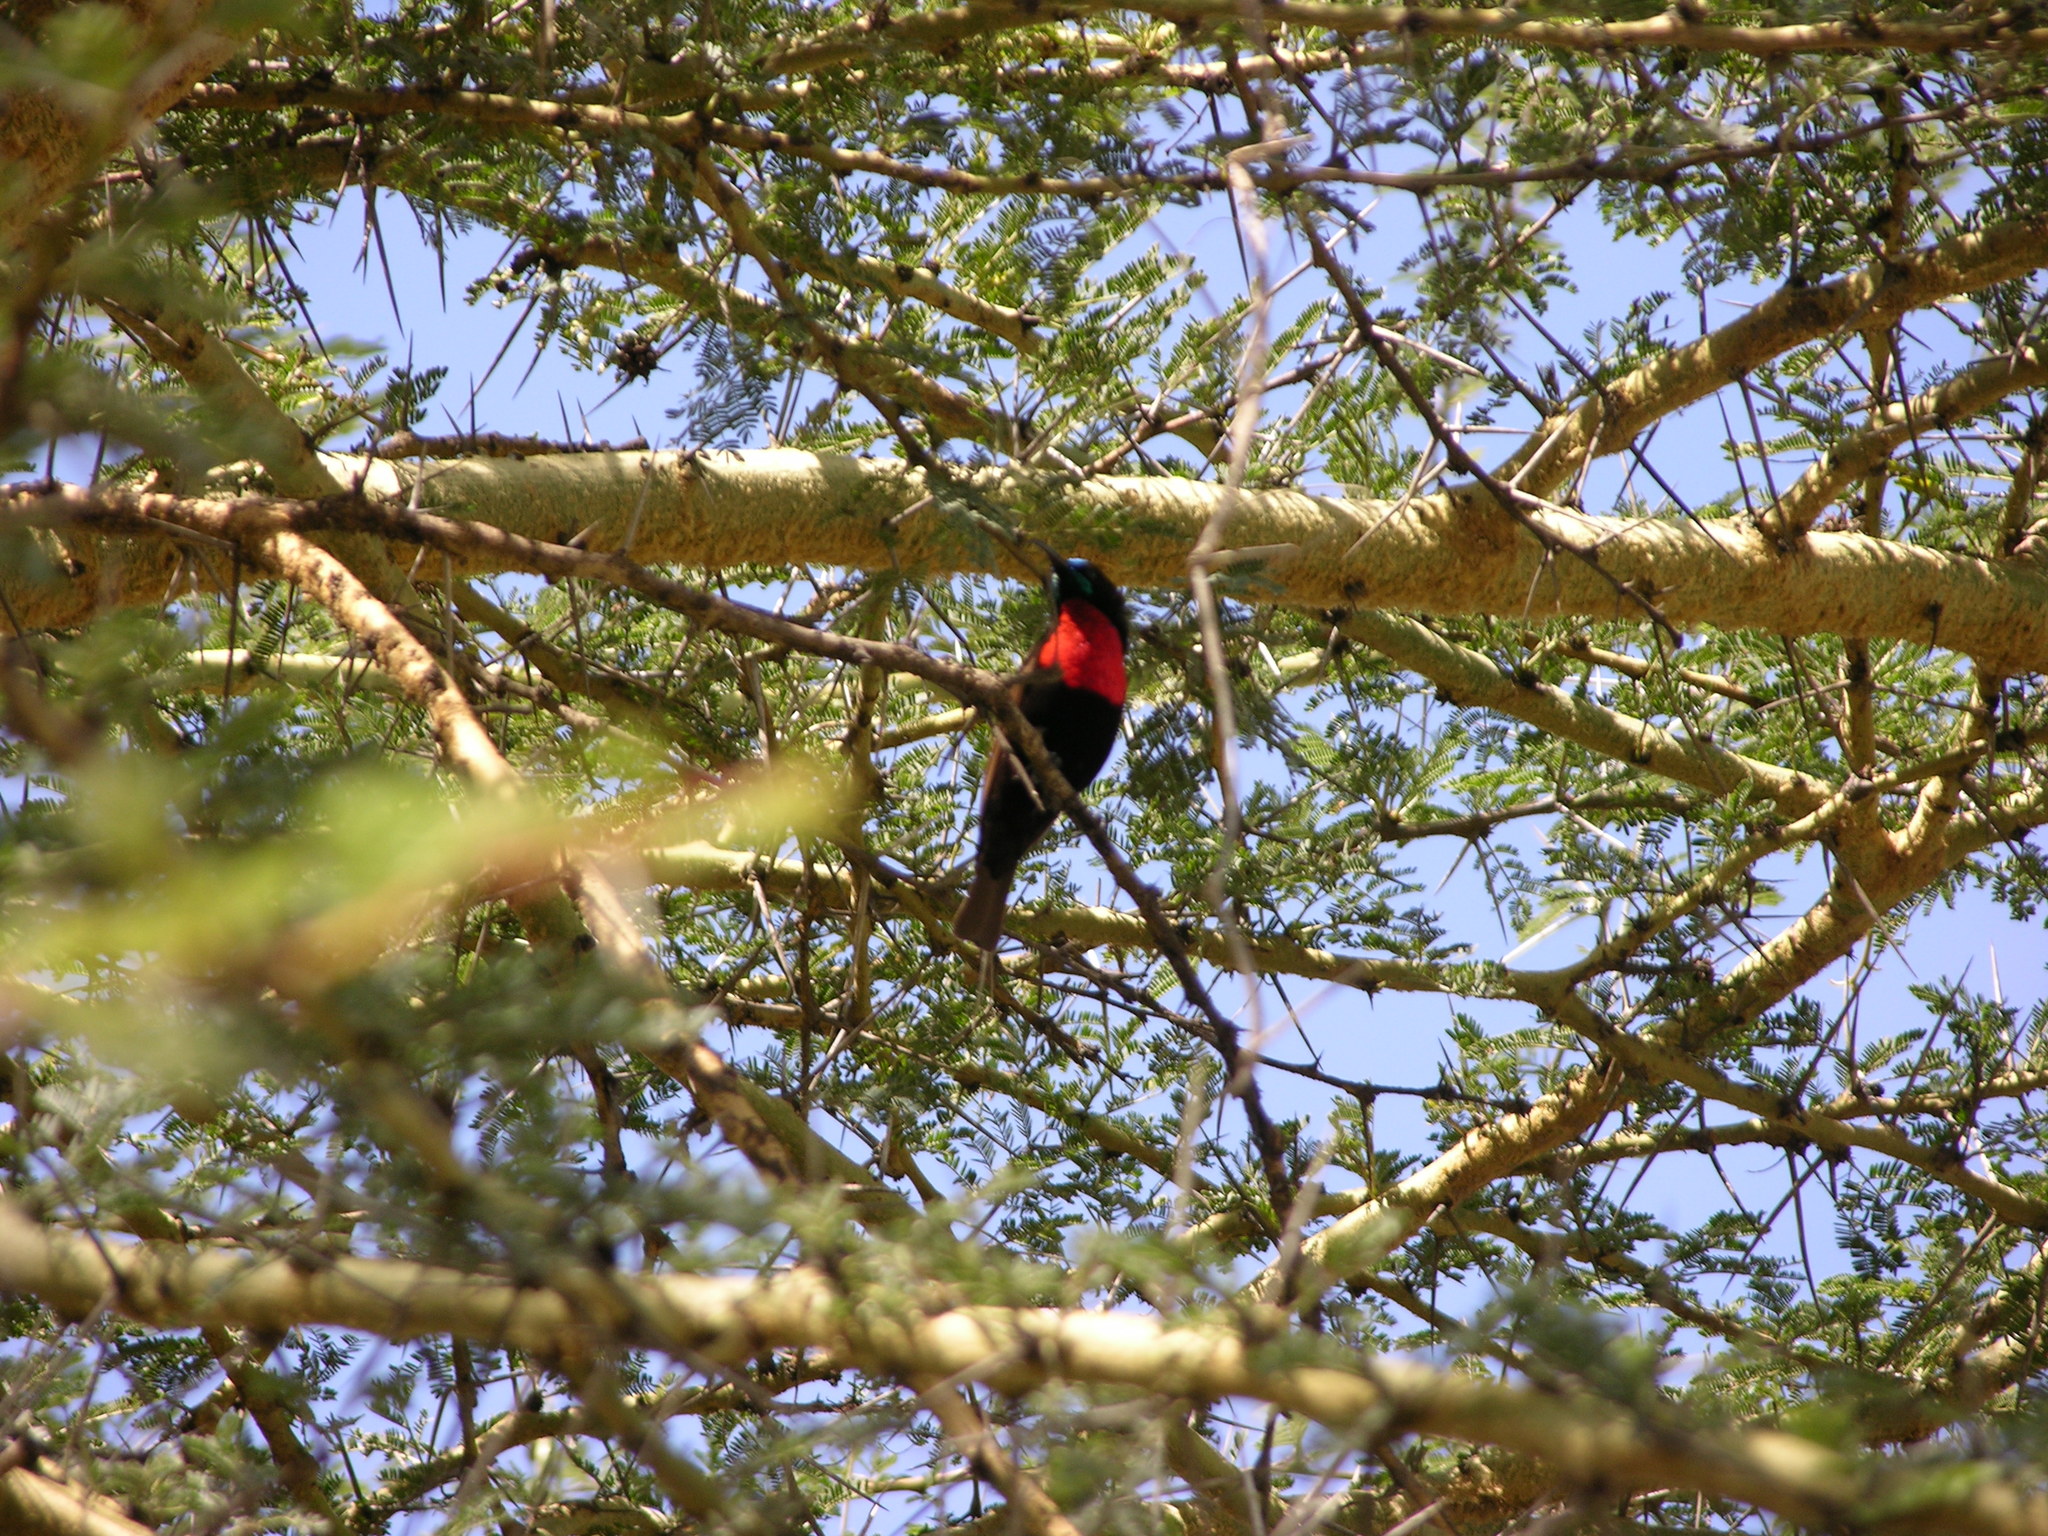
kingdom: Animalia
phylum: Chordata
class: Aves
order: Passeriformes
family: Nectariniidae
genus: Chalcomitra
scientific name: Chalcomitra hunteri
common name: Hunter's sunbird
